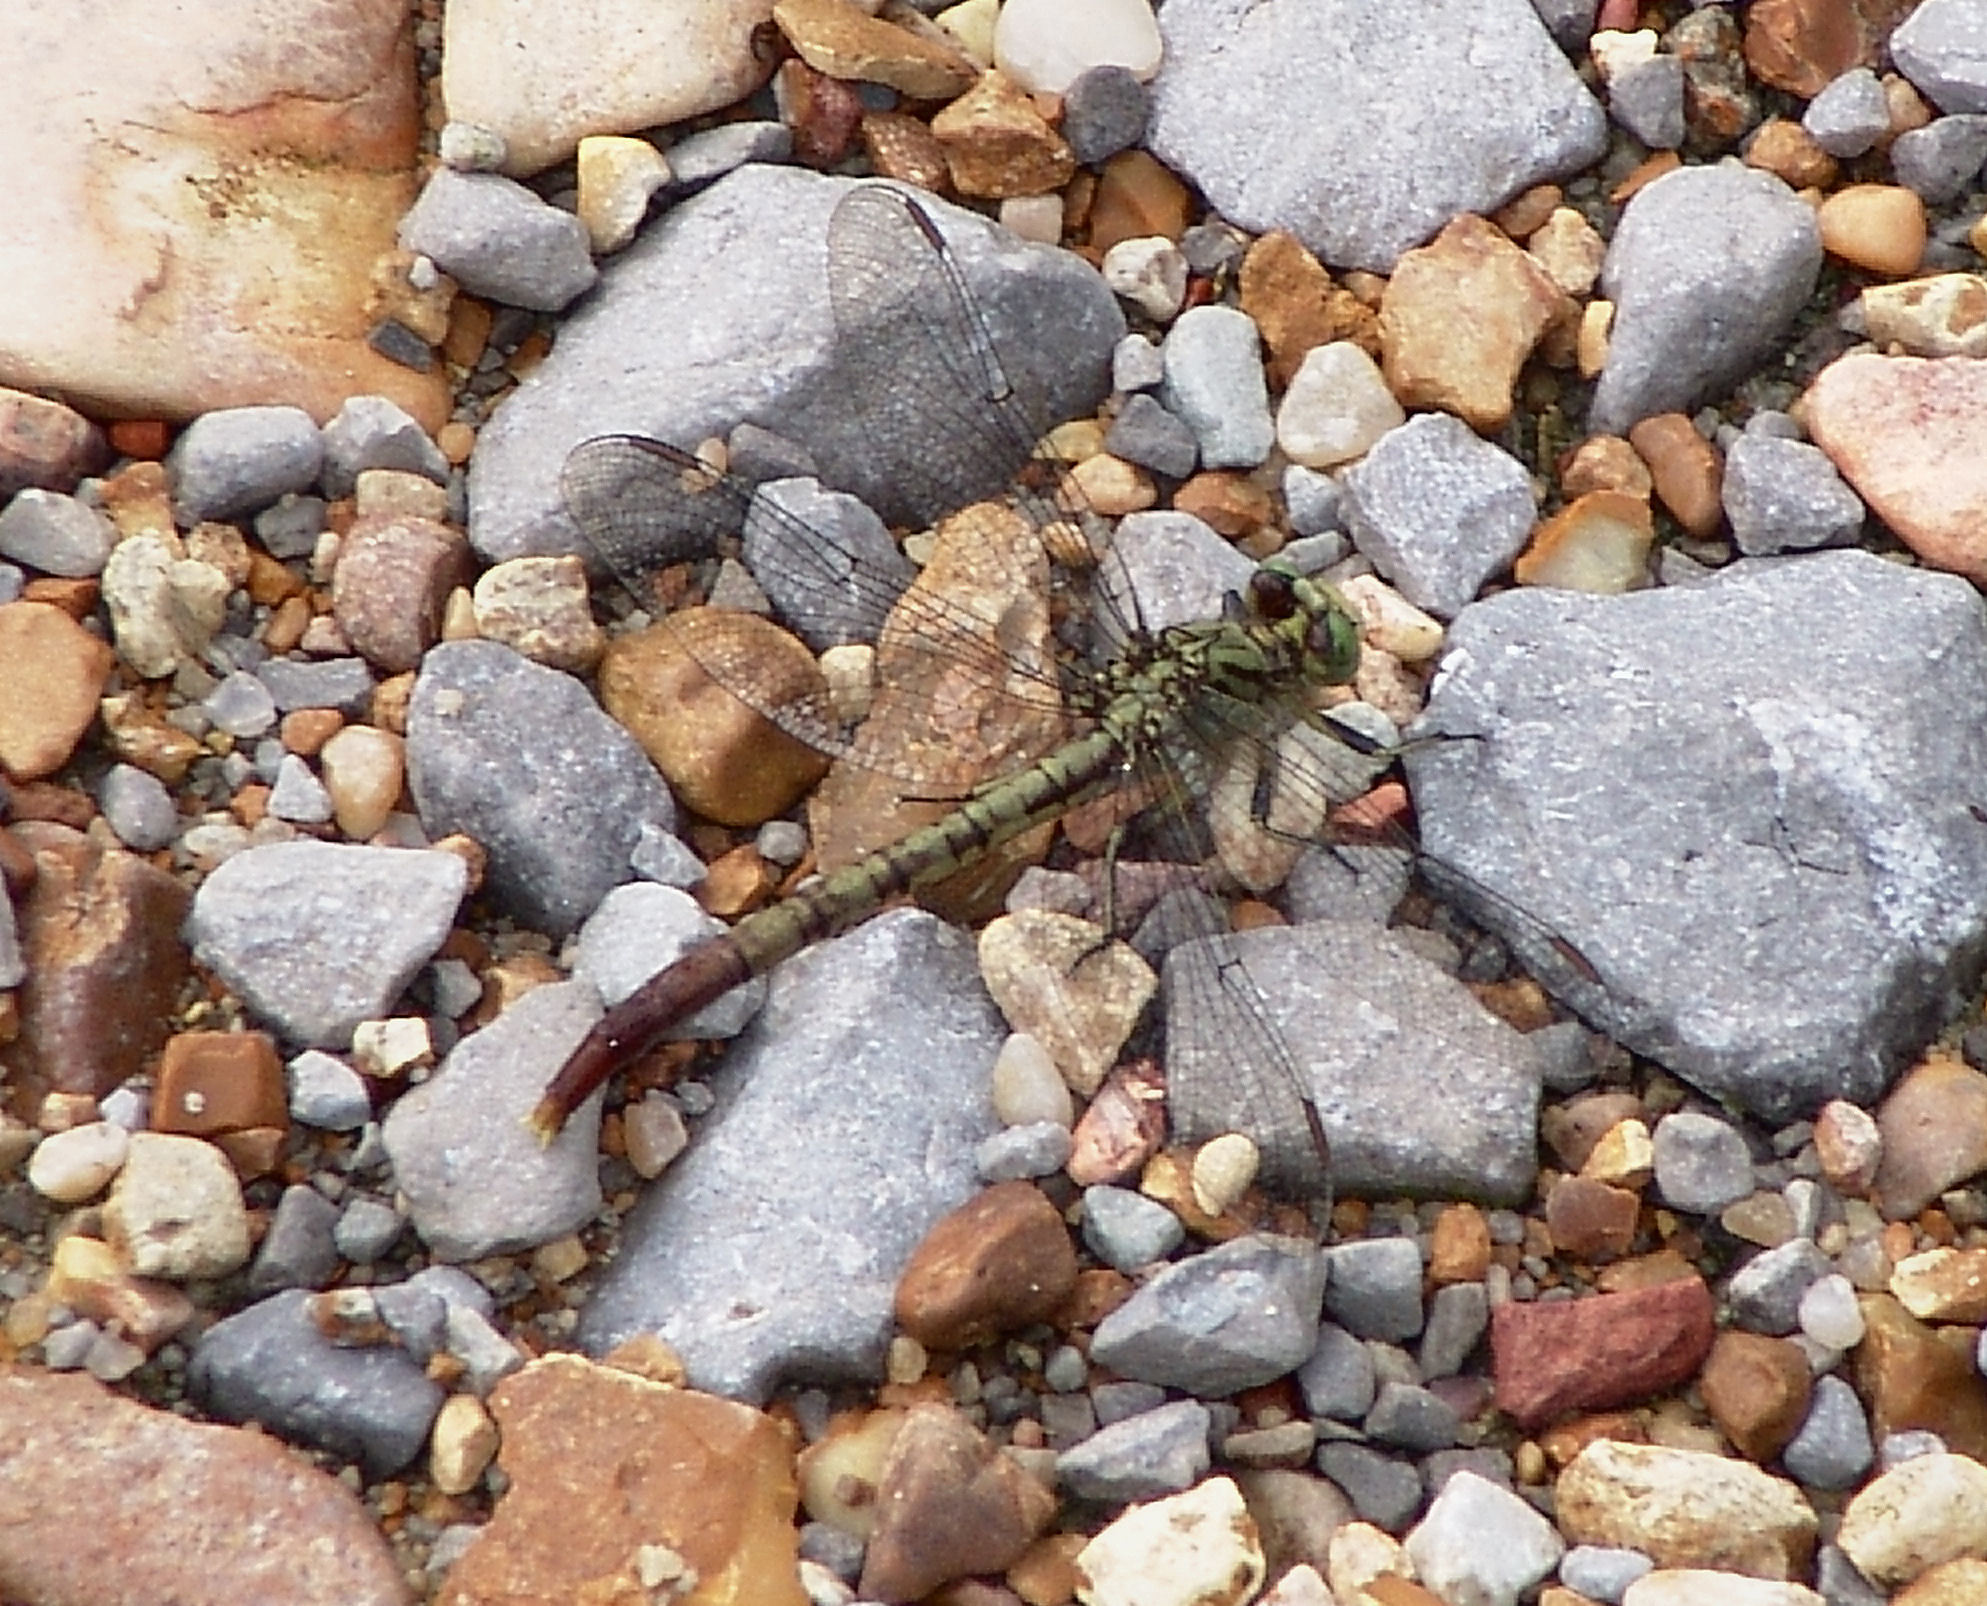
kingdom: Animalia
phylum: Arthropoda
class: Insecta
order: Odonata
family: Gomphidae
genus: Arigomphus
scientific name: Arigomphus submedianus
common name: Jade clubtail
